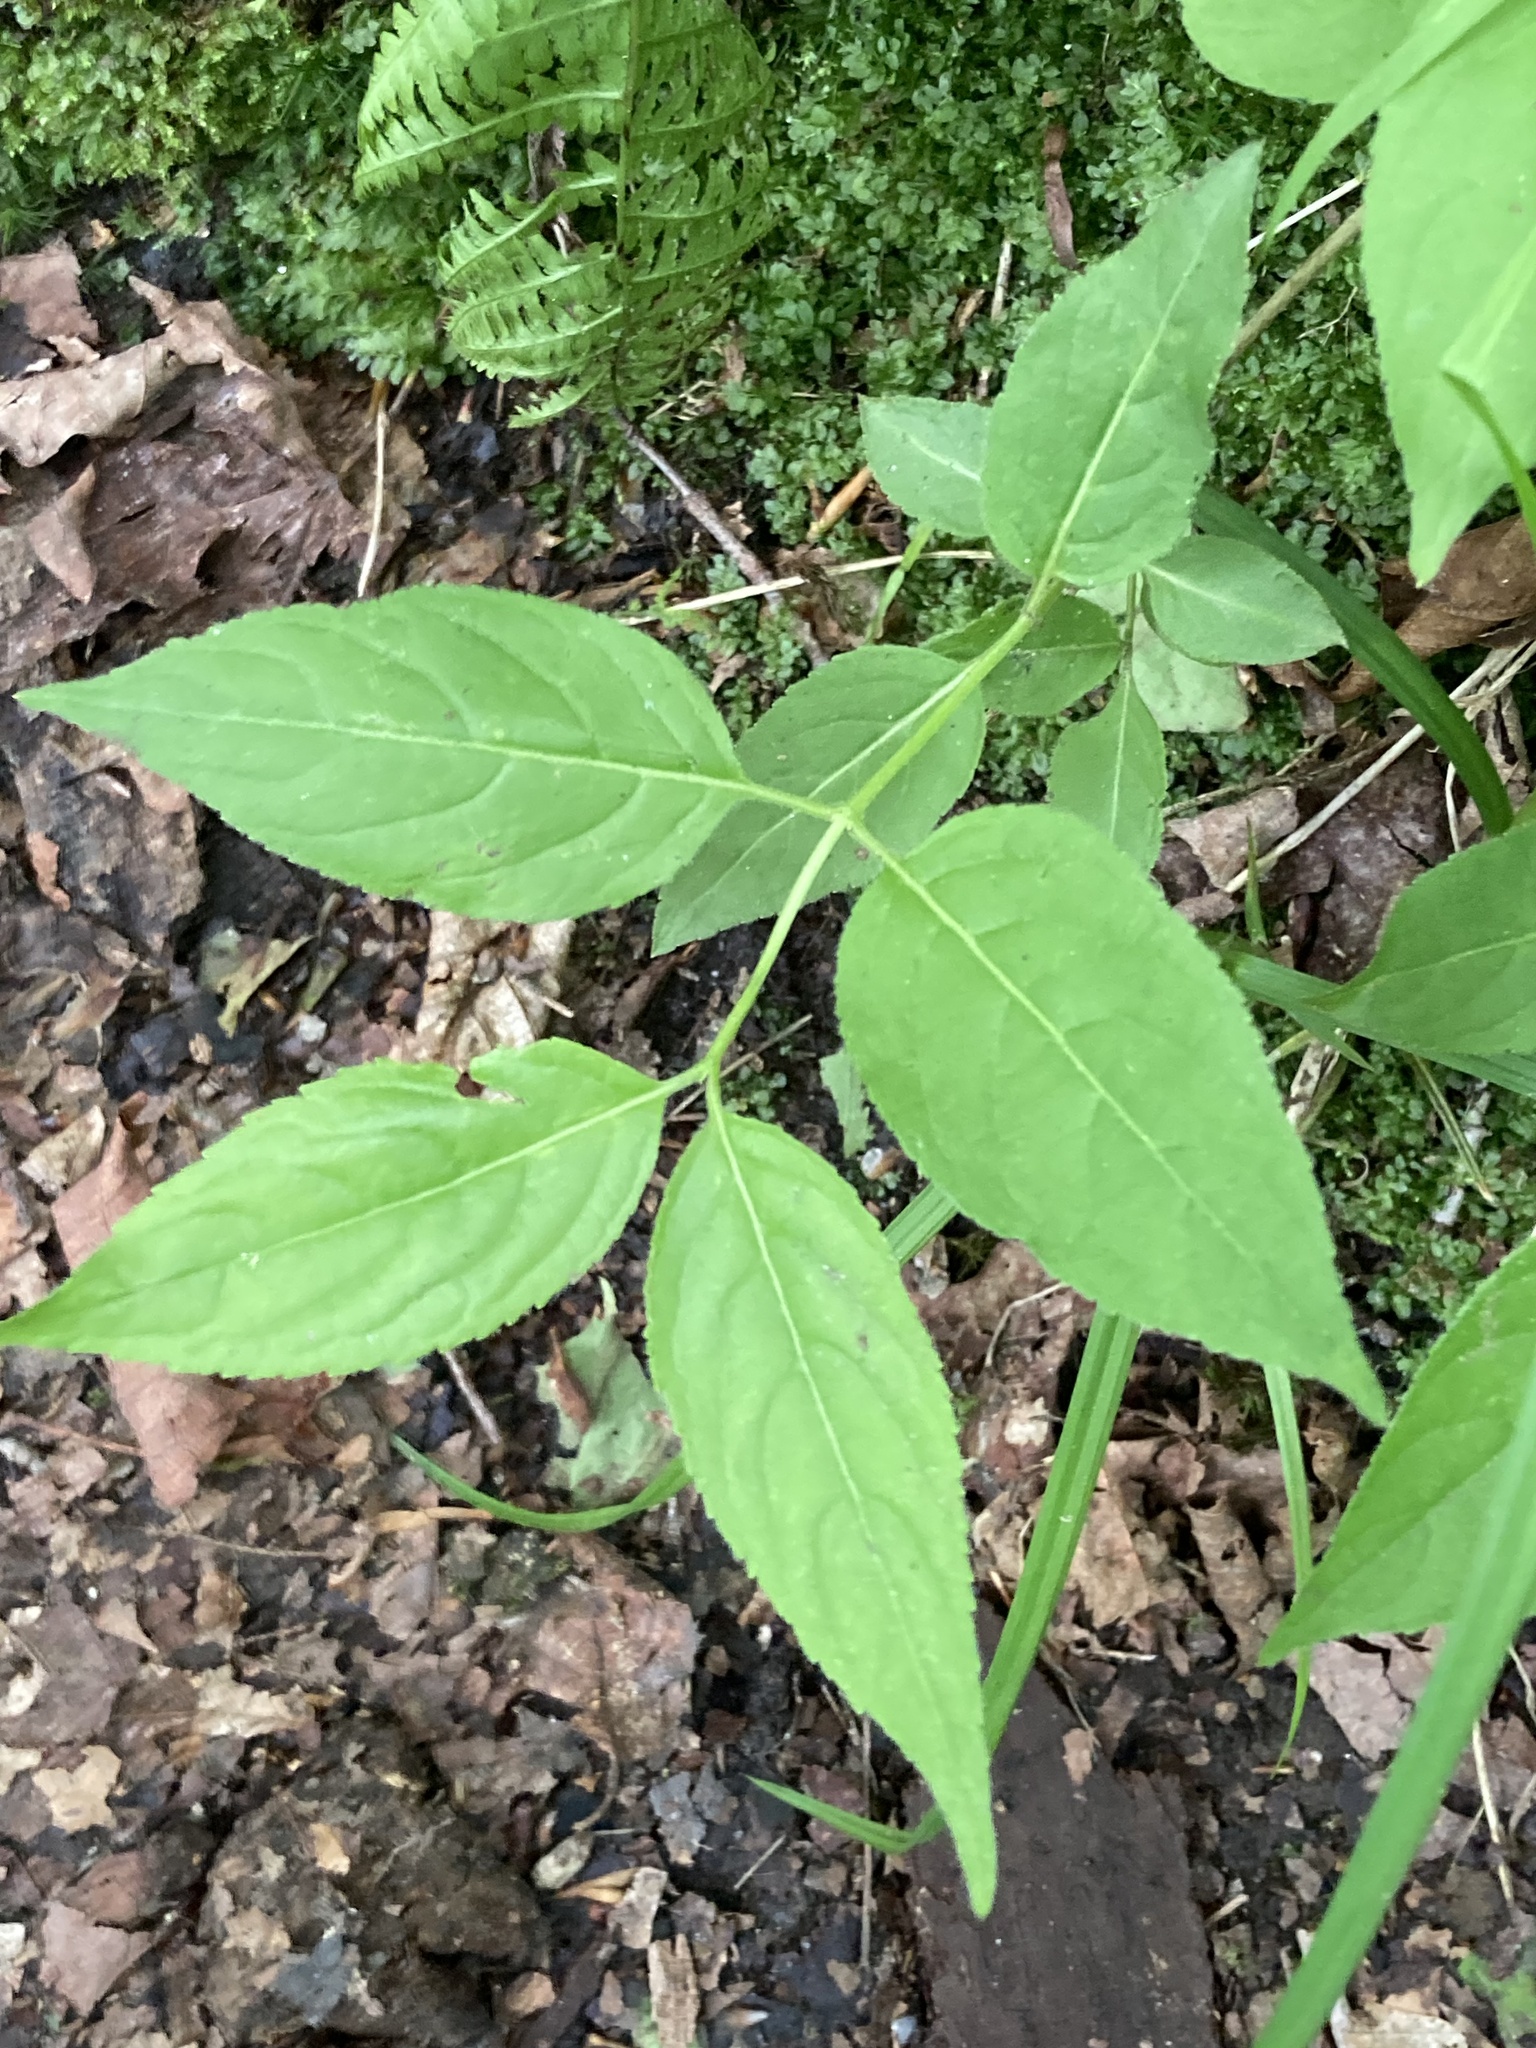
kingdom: Plantae
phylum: Tracheophyta
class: Magnoliopsida
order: Dipsacales
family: Caprifoliaceae
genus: Diervilla
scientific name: Diervilla lonicera
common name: Bush-honeysuckle
